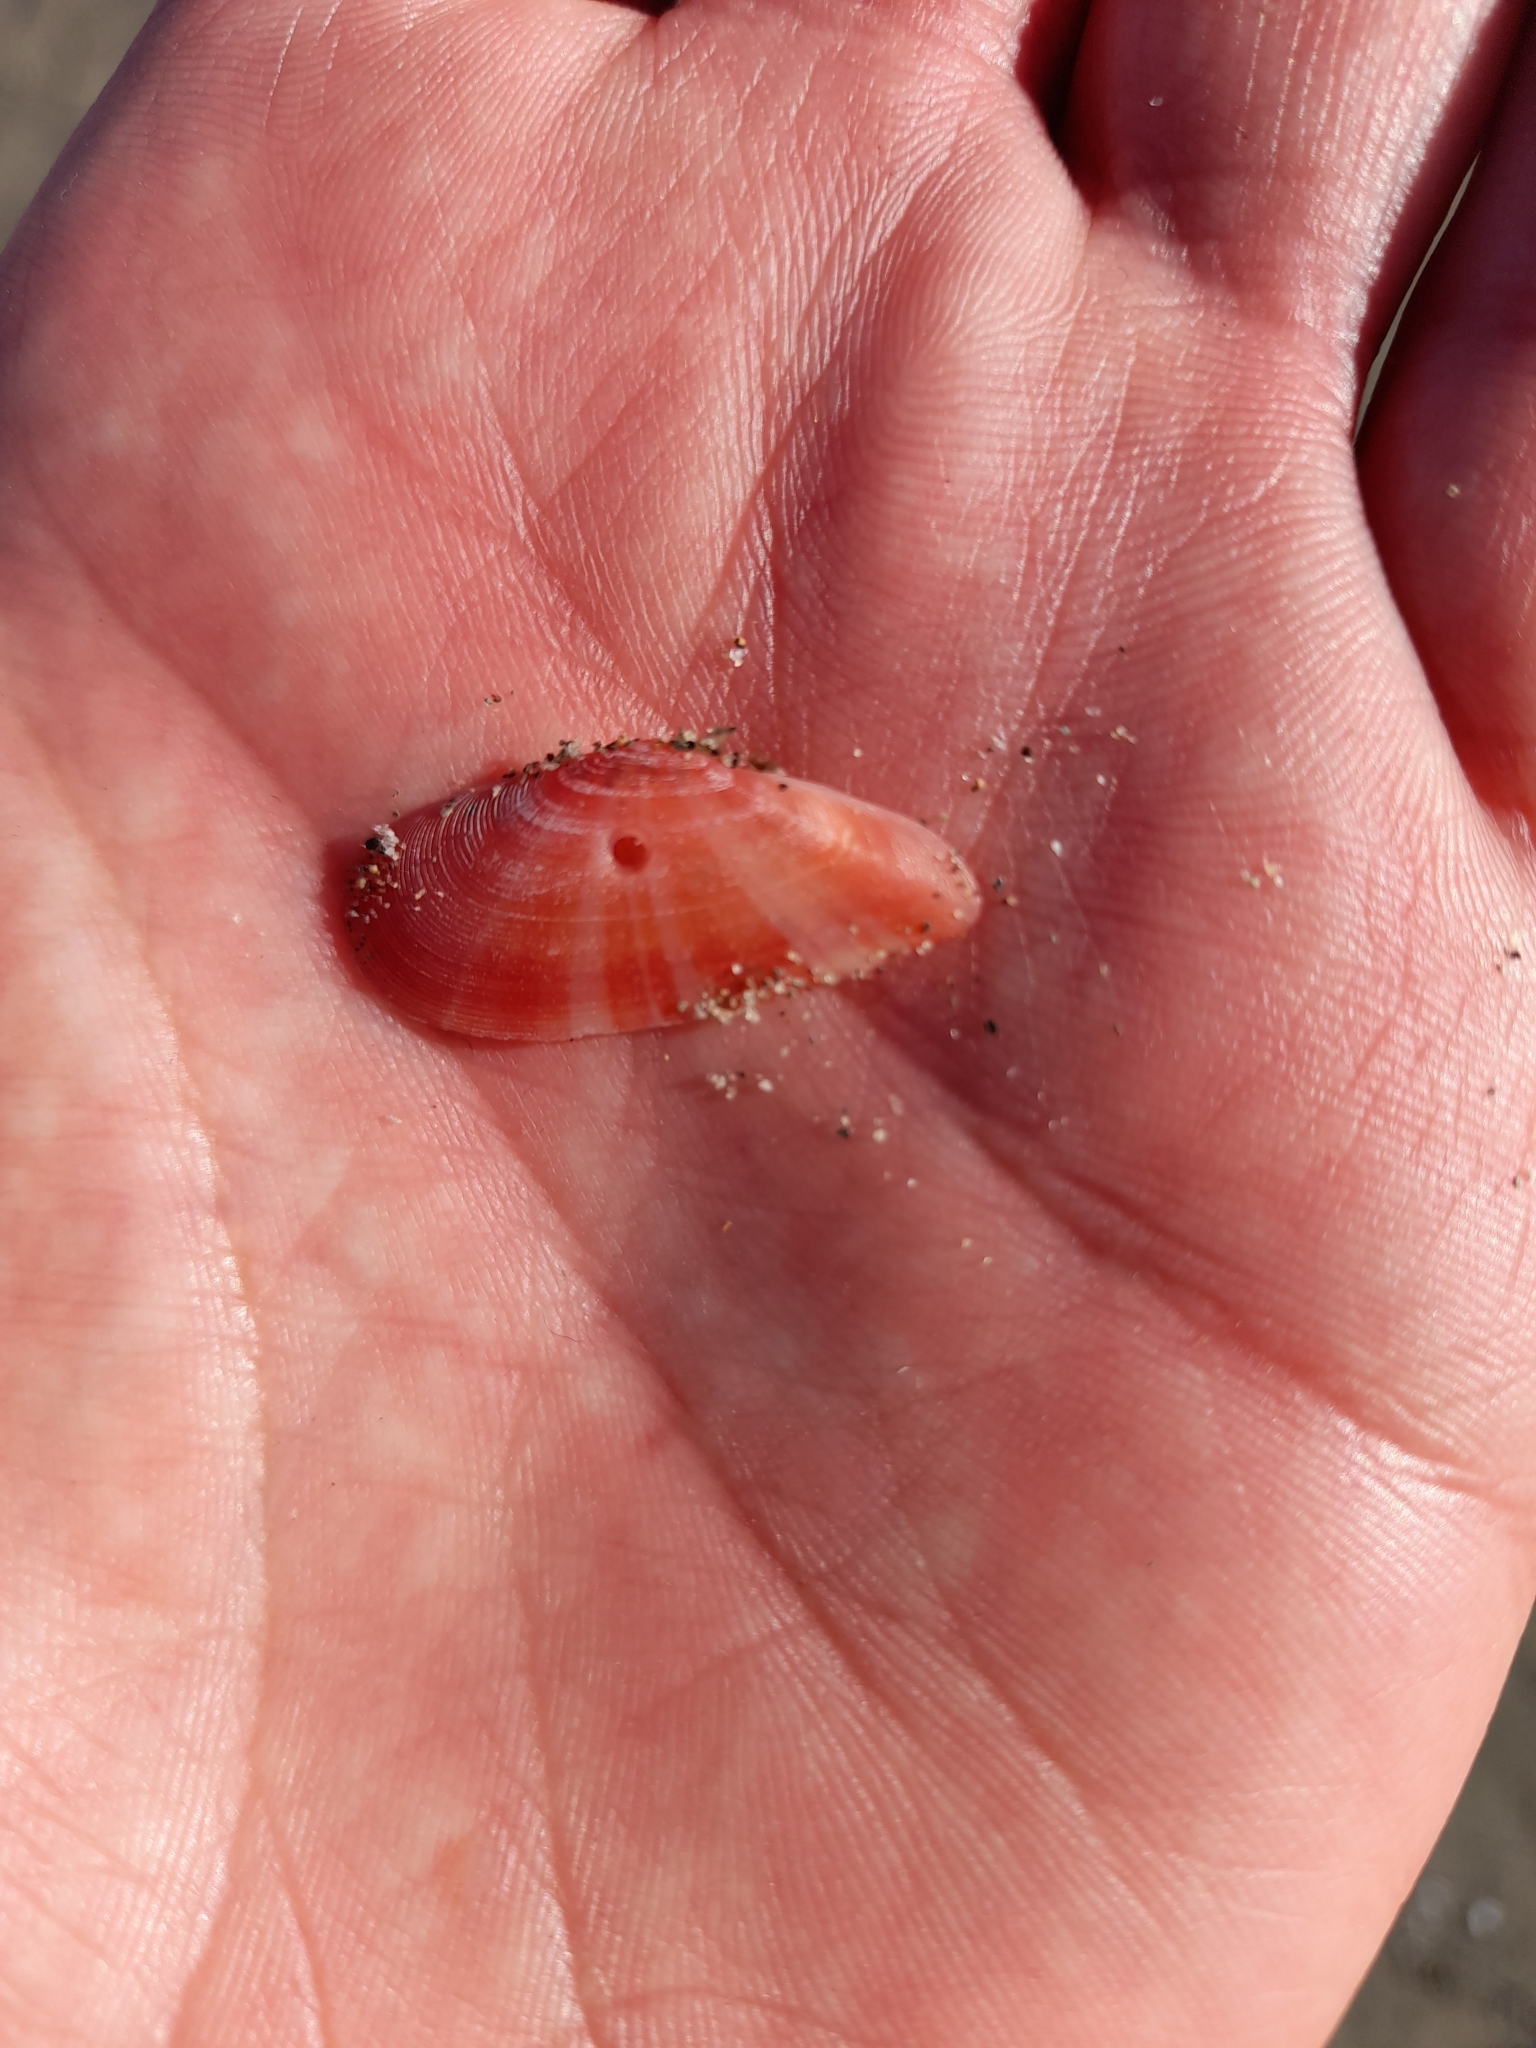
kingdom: Animalia
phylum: Mollusca
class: Bivalvia
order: Cardiida
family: Tellinidae
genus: Moerella
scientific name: Moerella pulchella
